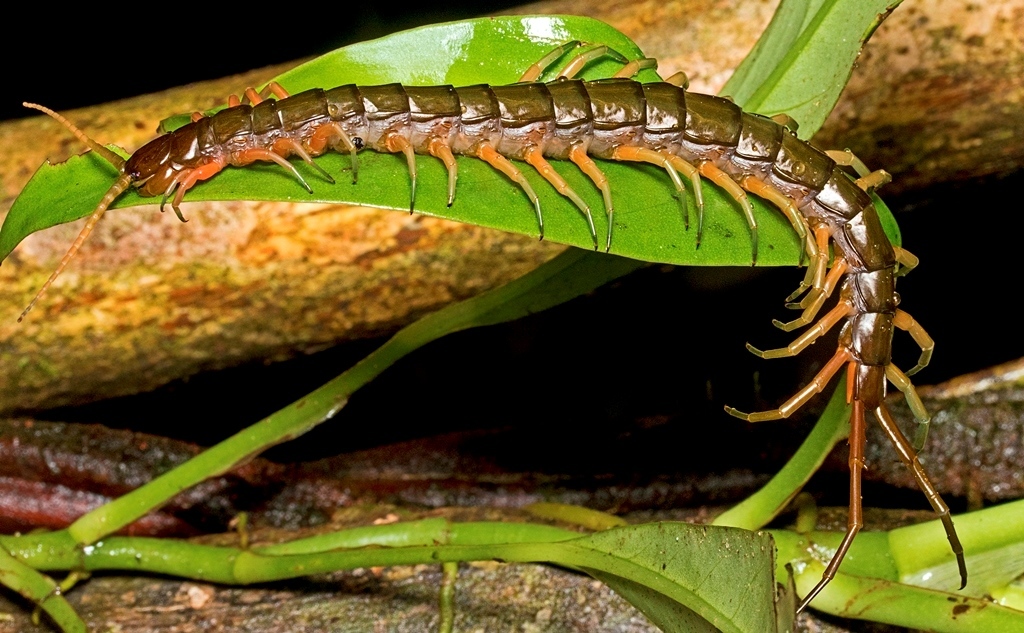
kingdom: Animalia
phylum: Arthropoda
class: Chilopoda
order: Scolopendromorpha
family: Scolopendridae
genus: Scolopendra
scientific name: Scolopendra subspinipes
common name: Centipede
